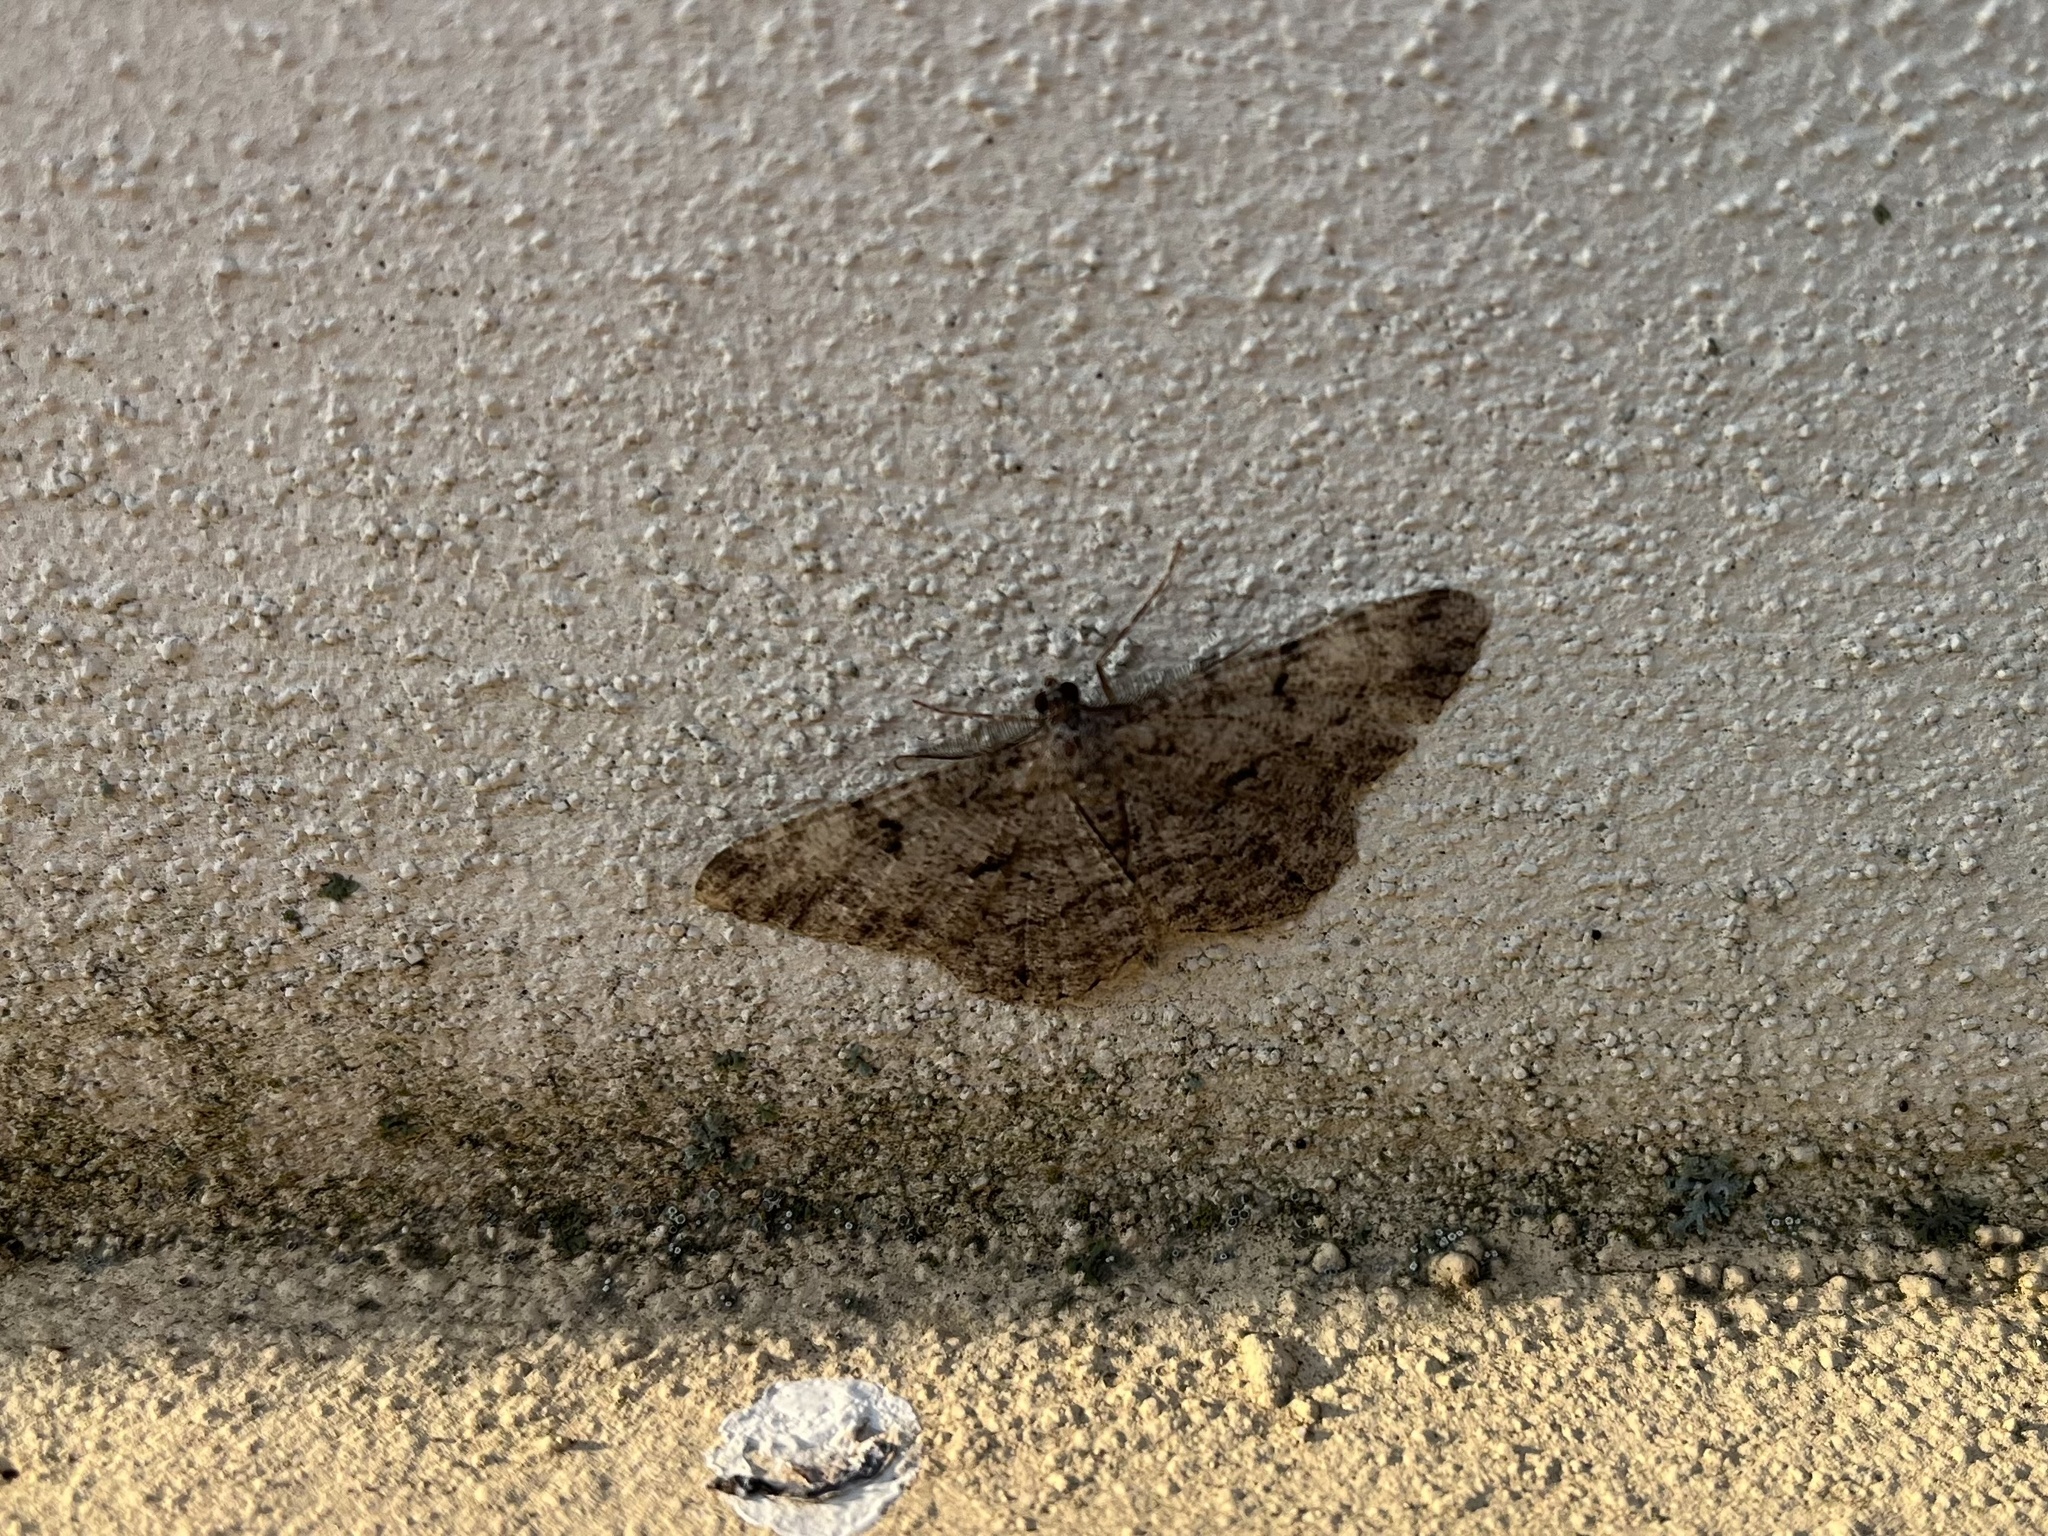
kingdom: Animalia
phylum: Arthropoda
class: Insecta
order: Lepidoptera
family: Geometridae
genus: Peribatodes
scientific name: Peribatodes rhomboidaria
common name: Willow beauty
